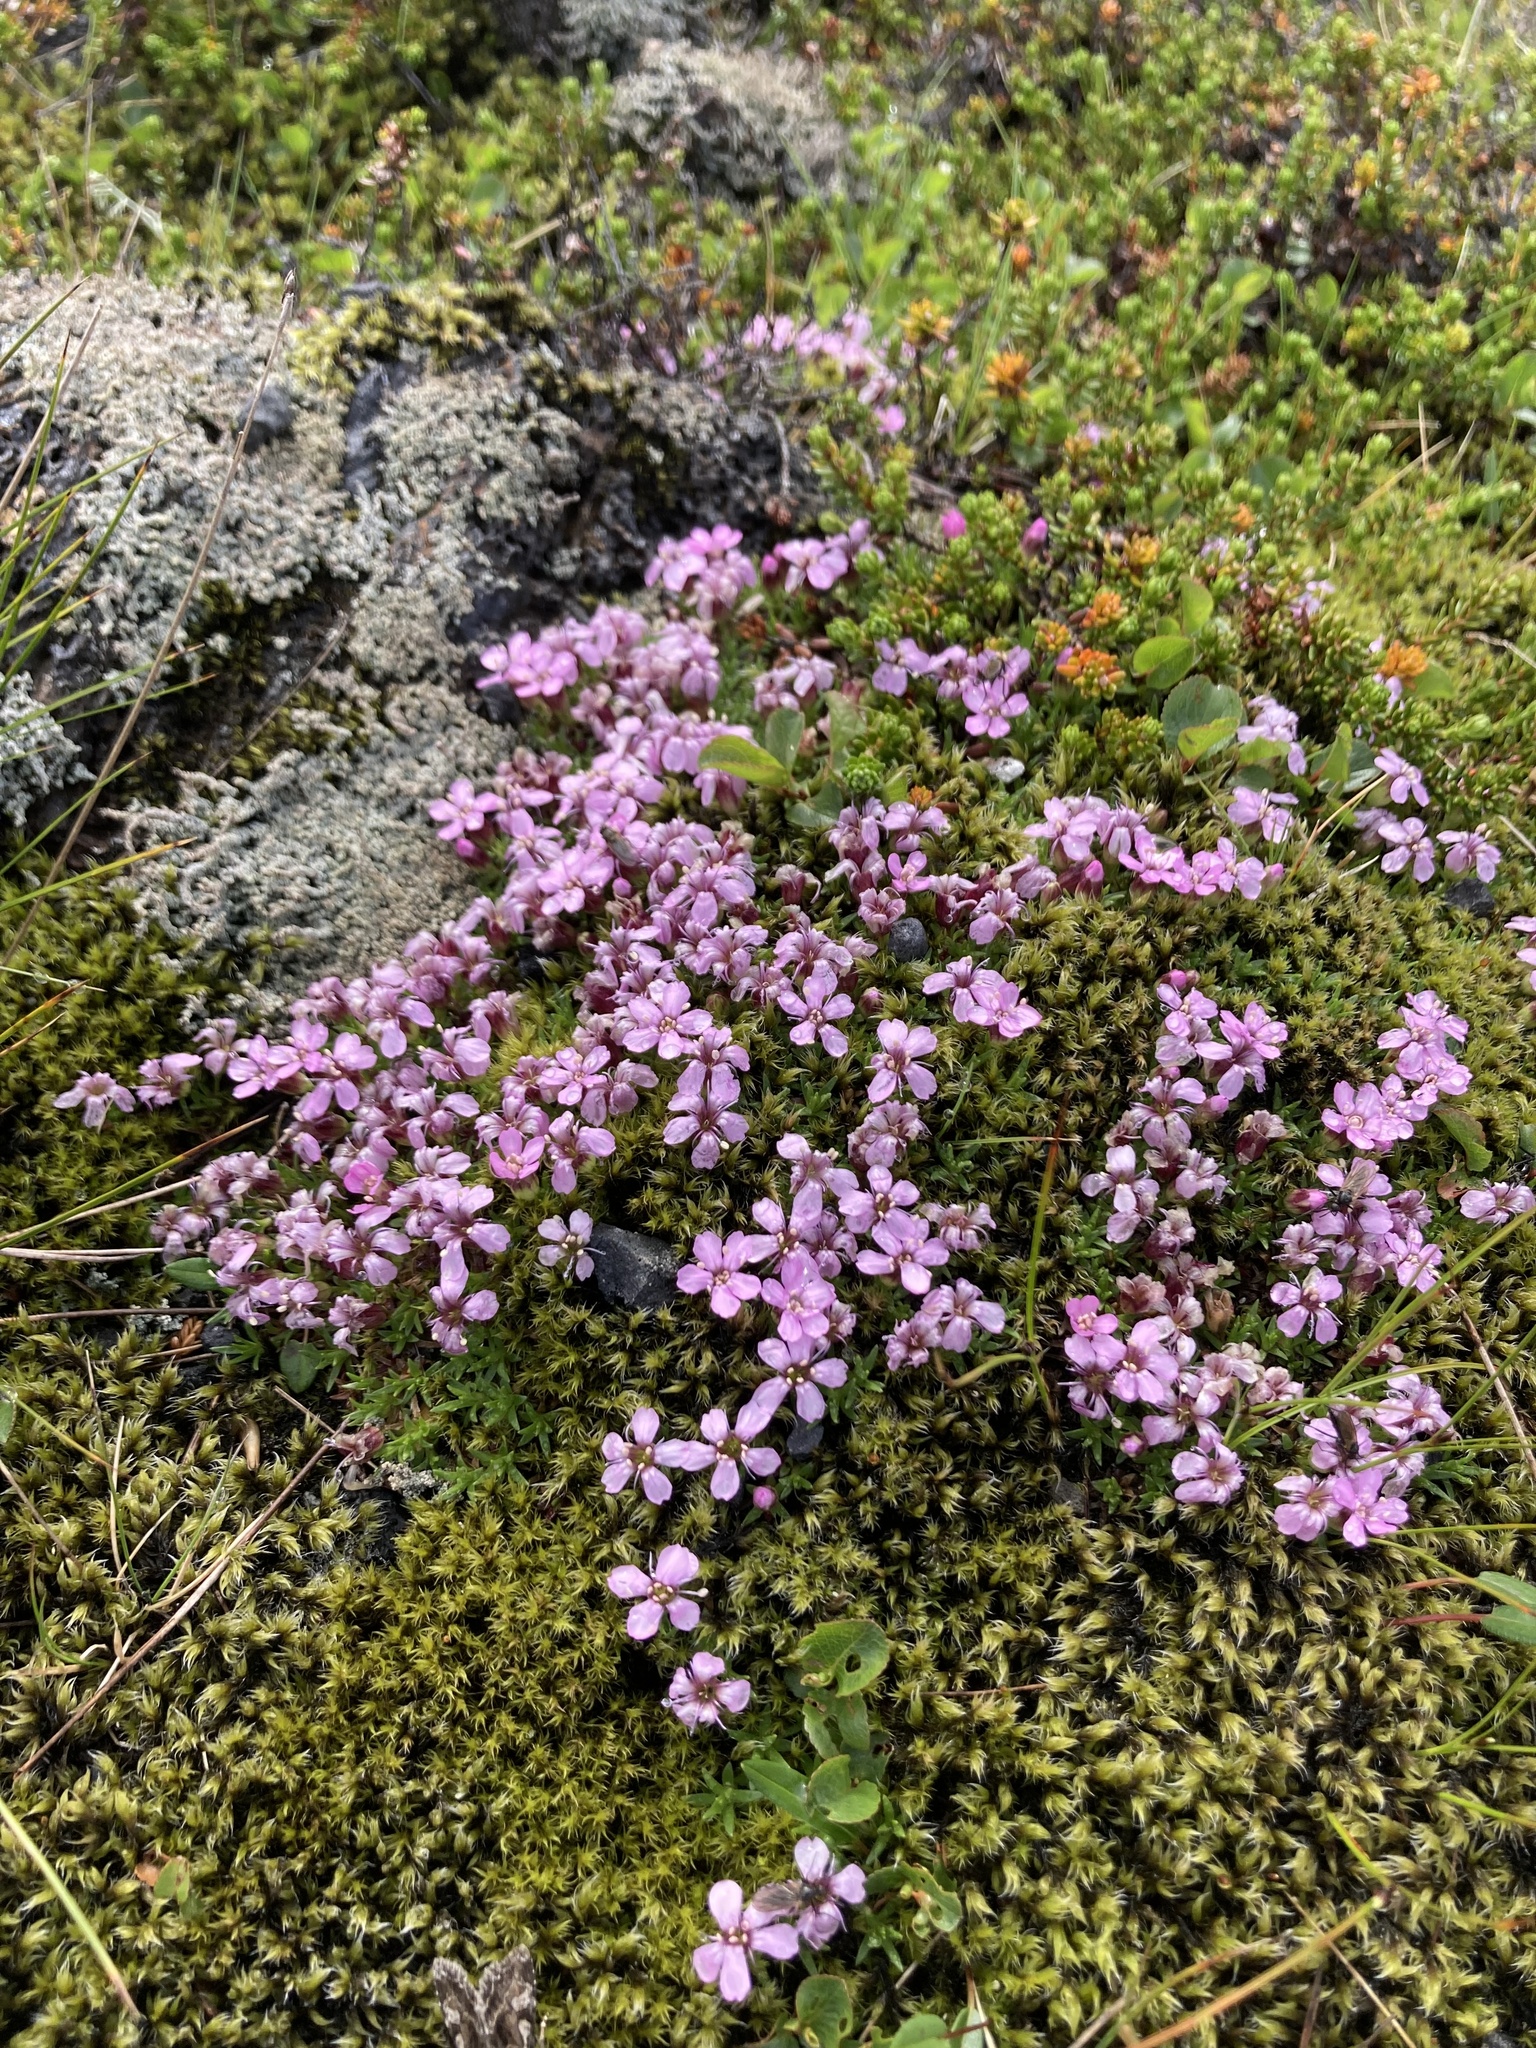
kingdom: Plantae
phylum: Tracheophyta
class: Magnoliopsida
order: Caryophyllales
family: Caryophyllaceae
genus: Silene
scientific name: Silene acaulis
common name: Moss campion
